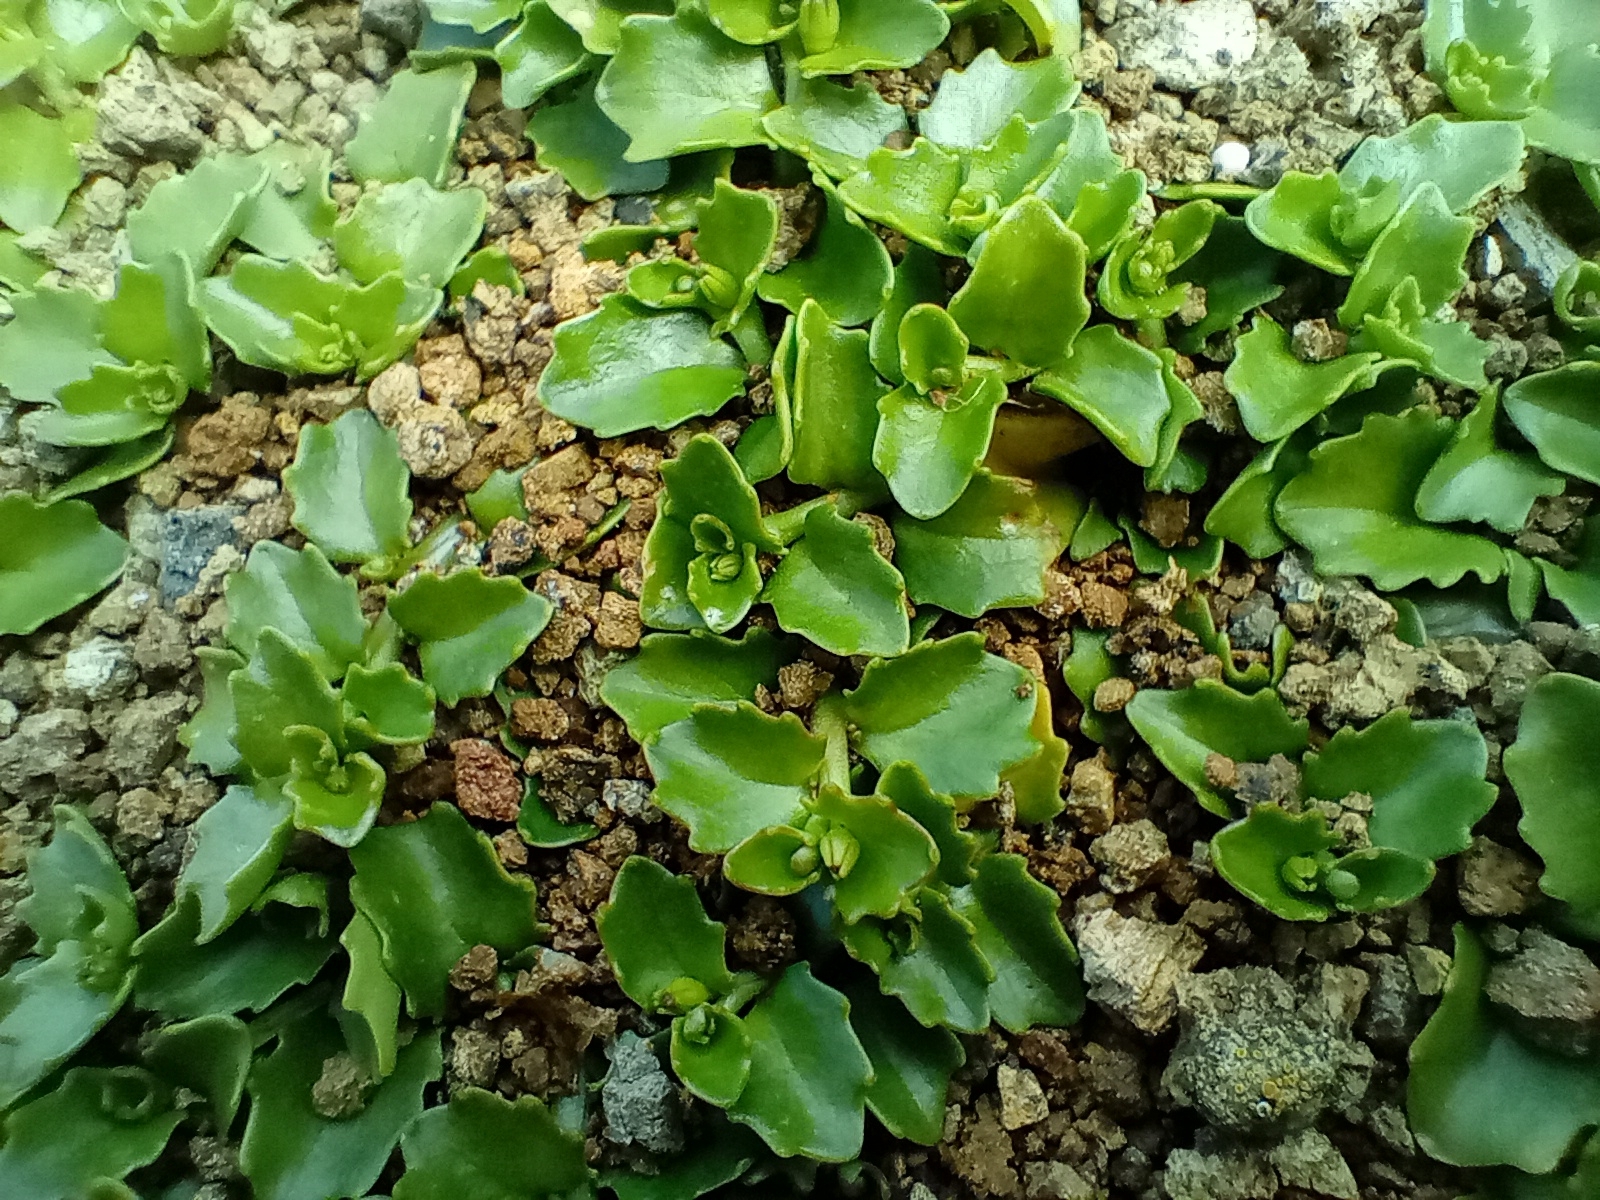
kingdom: Plantae
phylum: Tracheophyta
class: Magnoliopsida
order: Asterales
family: Campanulaceae
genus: Lobelia
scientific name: Lobelia arenaria
